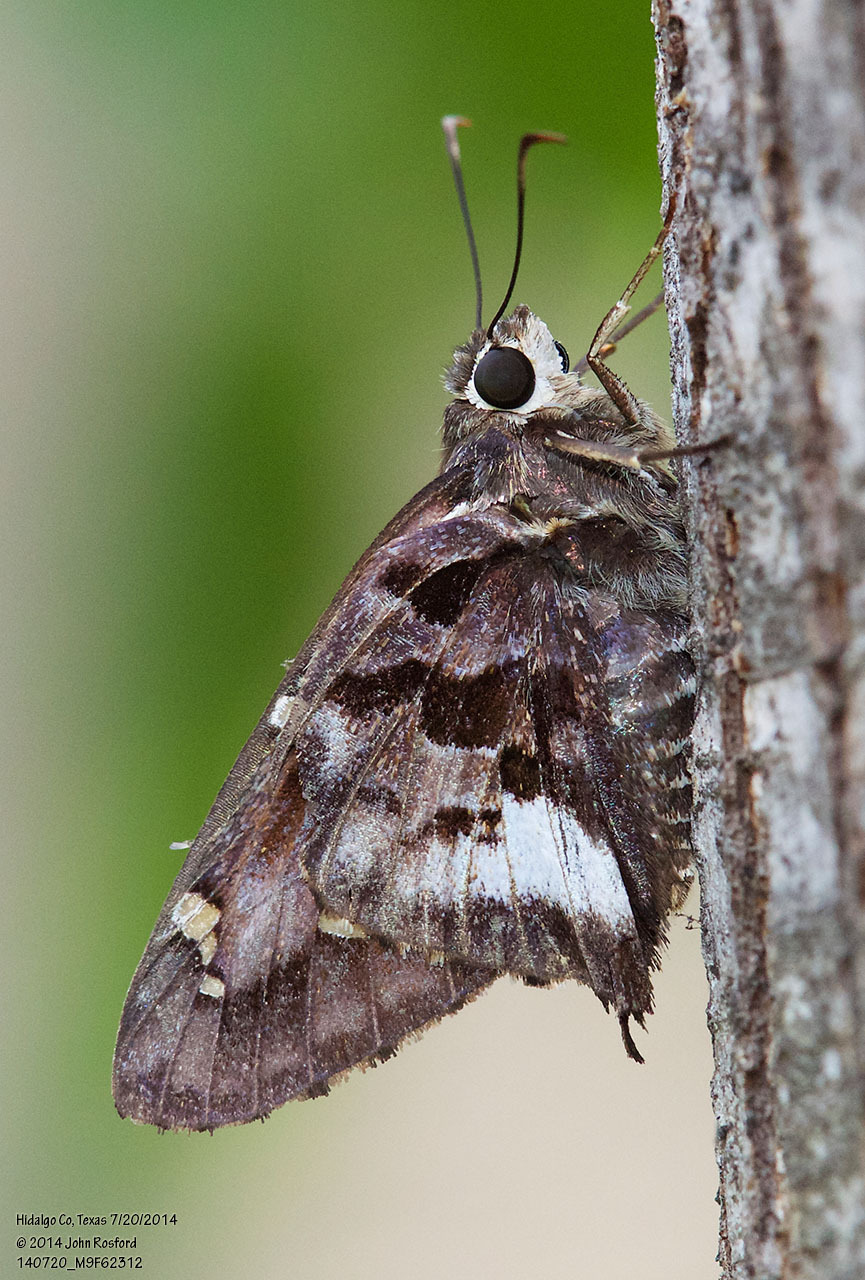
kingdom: Animalia
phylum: Arthropoda
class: Insecta
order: Lepidoptera
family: Hesperiidae
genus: Codatractus
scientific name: Codatractus alcaeus
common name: White-crescent longtail
